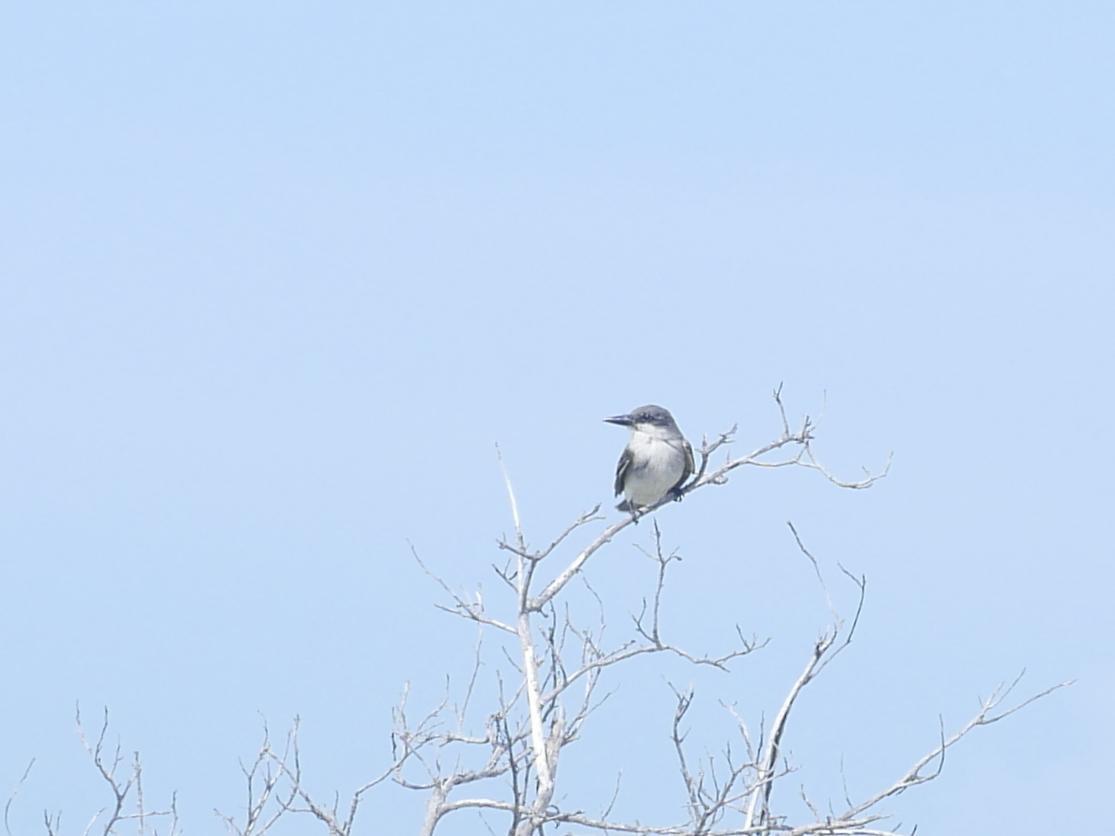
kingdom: Animalia
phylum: Chordata
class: Aves
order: Passeriformes
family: Tyrannidae
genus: Tyrannus
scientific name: Tyrannus dominicensis
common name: Gray kingbird
